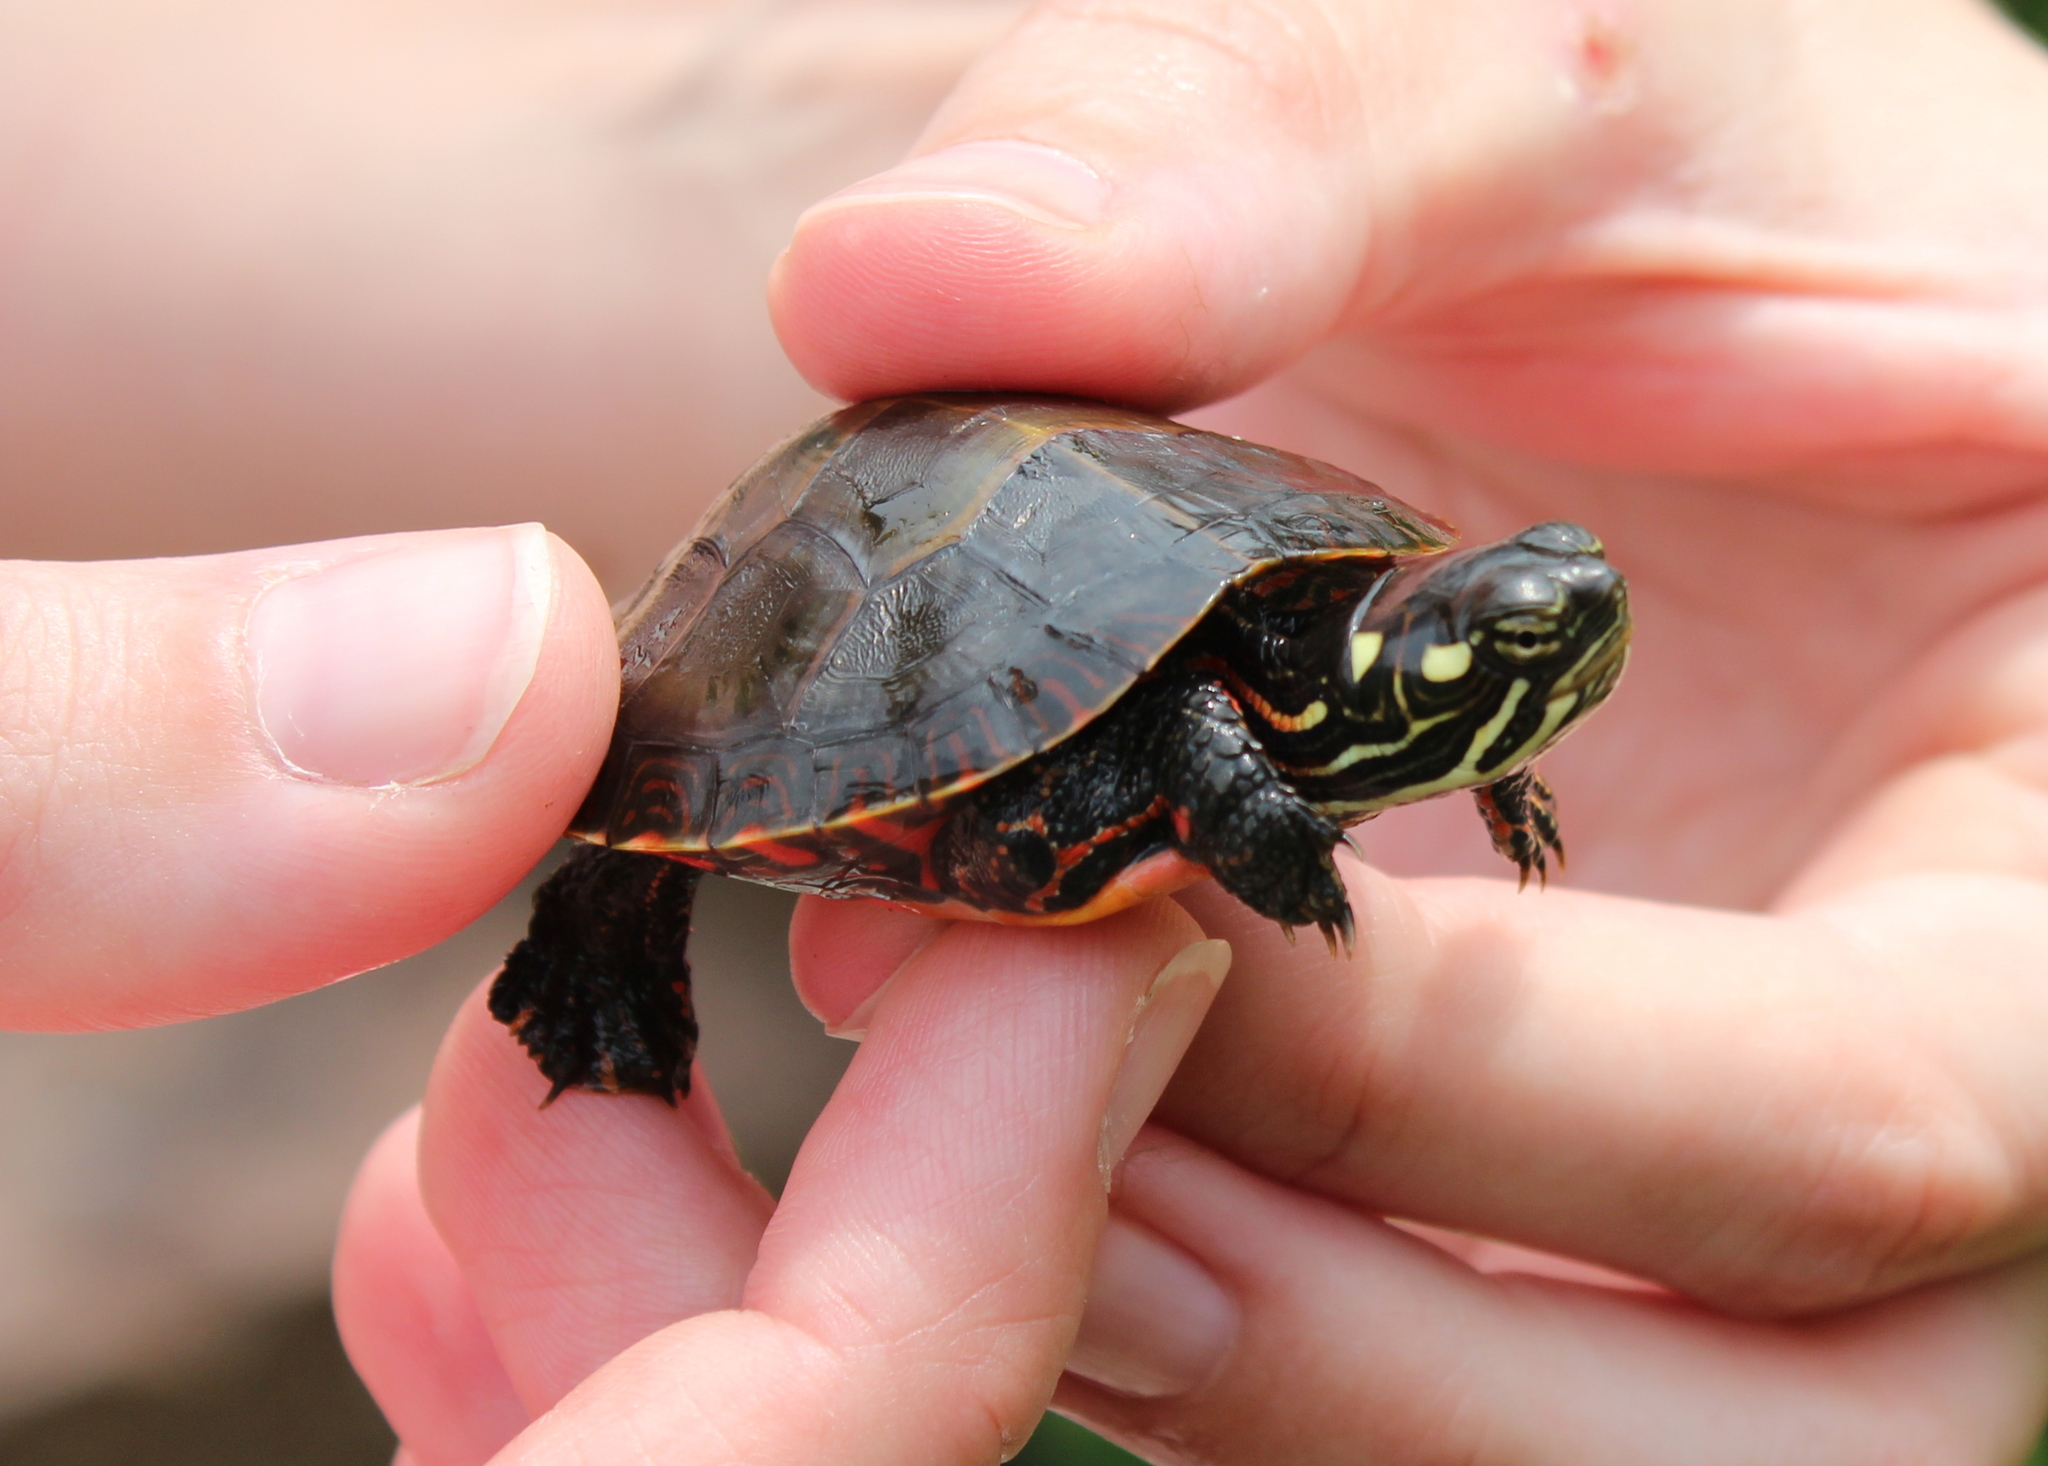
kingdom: Animalia
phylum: Chordata
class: Testudines
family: Emydidae
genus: Chrysemys
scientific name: Chrysemys picta
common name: Painted turtle
